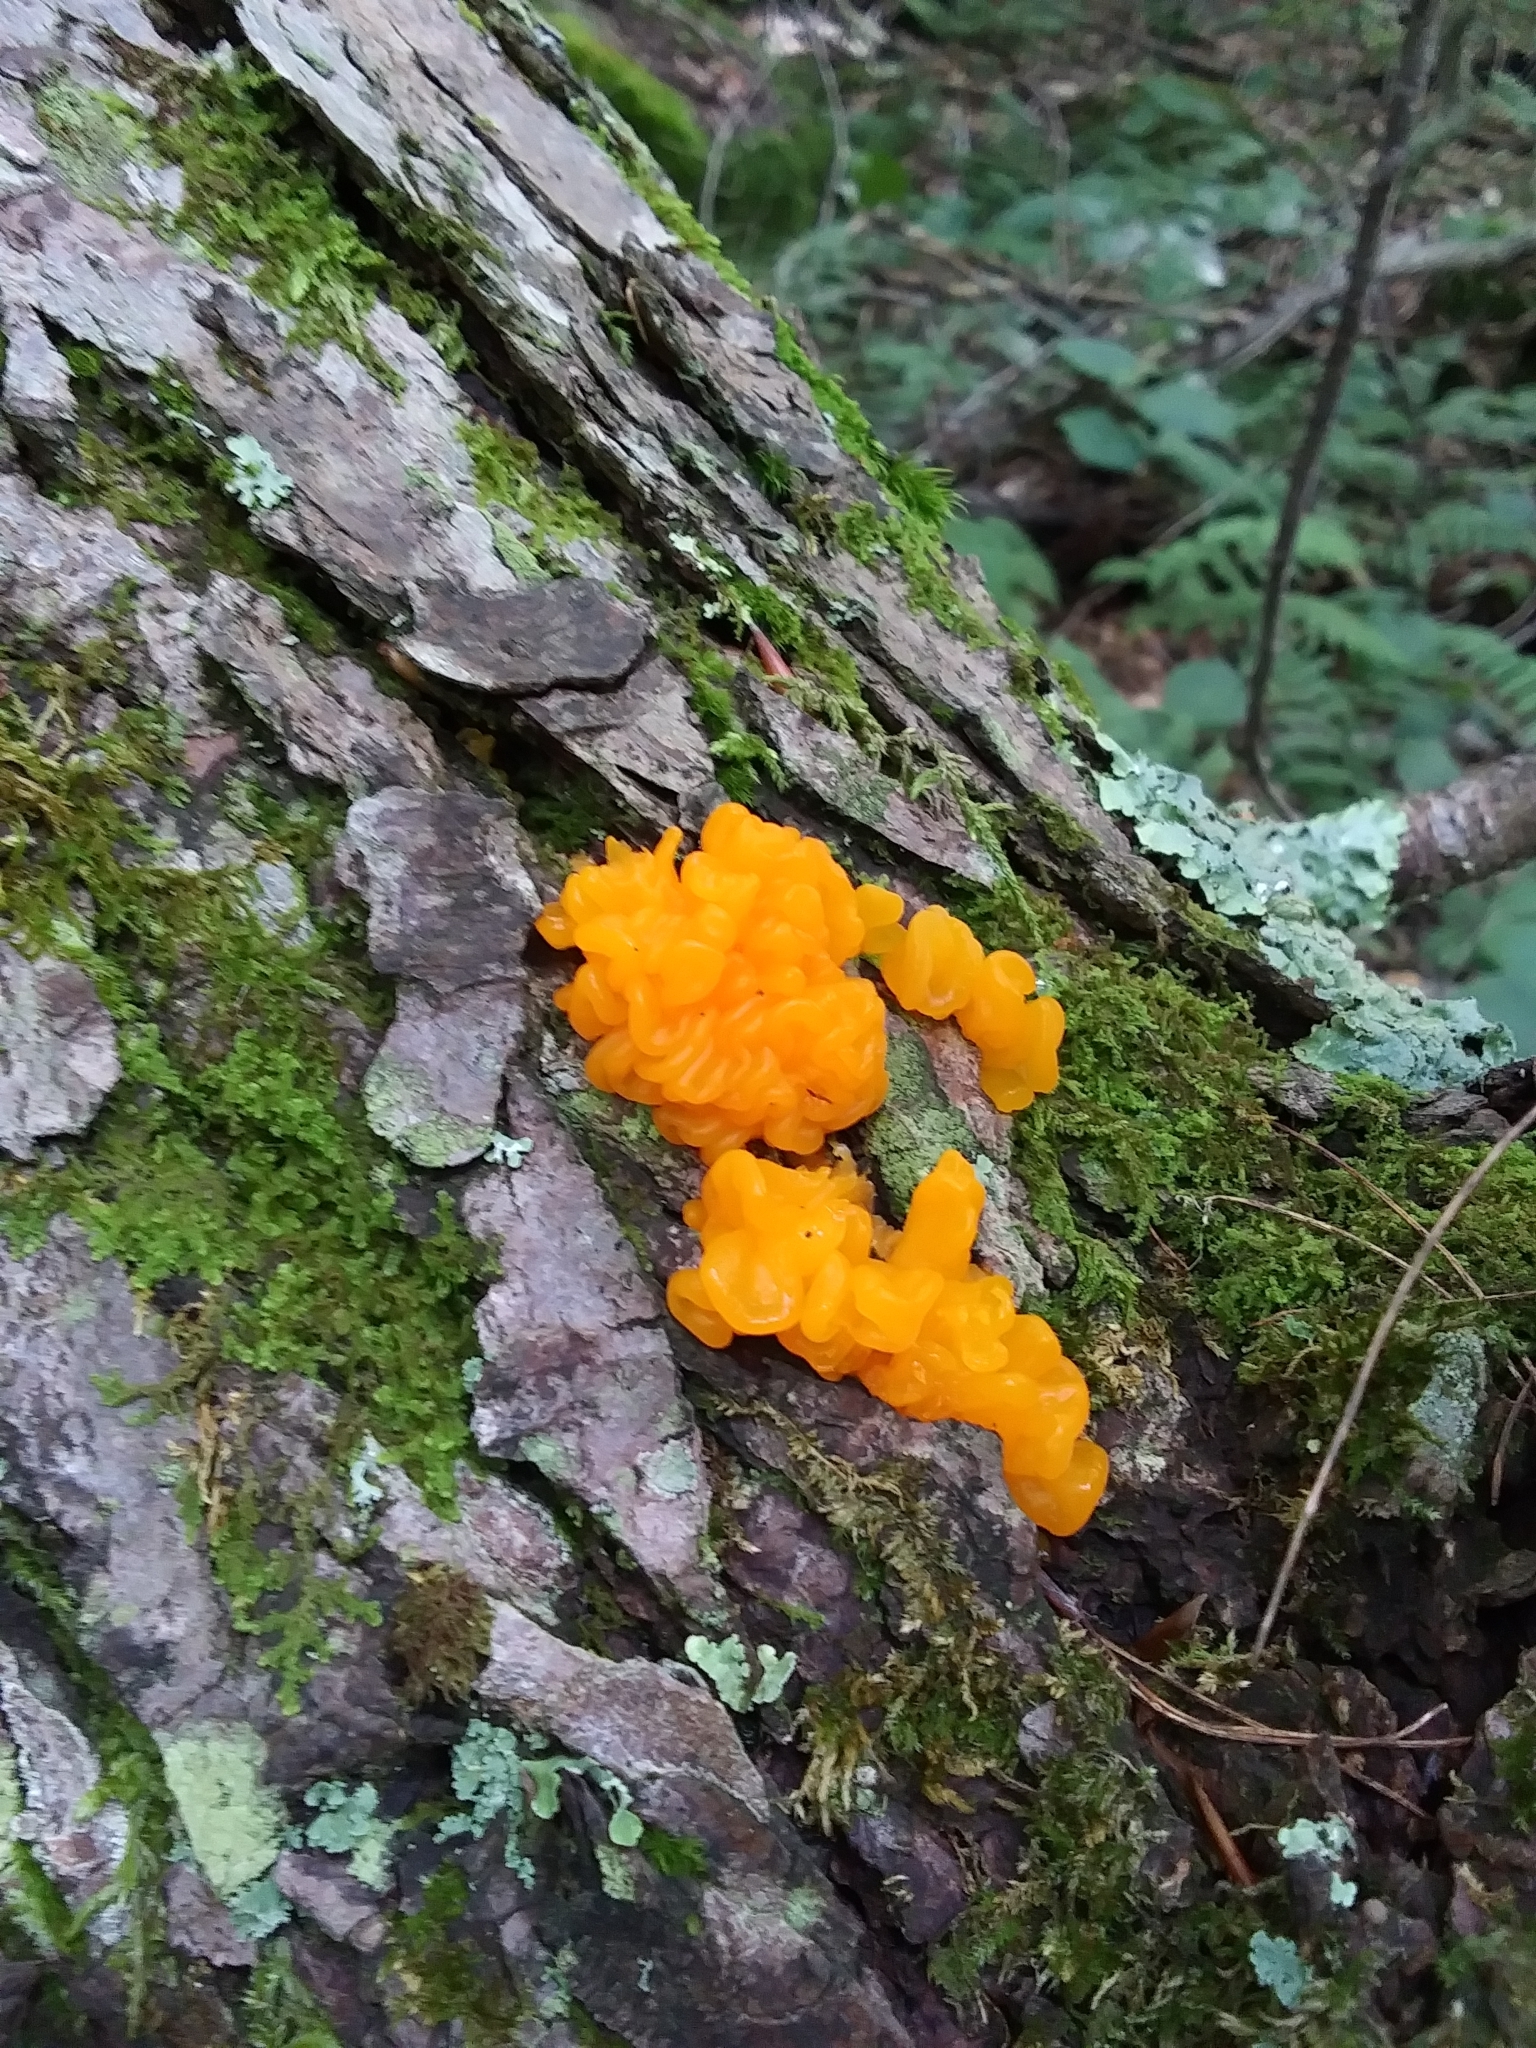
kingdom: Fungi
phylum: Basidiomycota
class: Dacrymycetes
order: Dacrymycetales
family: Dacrymycetaceae
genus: Dacrymyces
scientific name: Dacrymyces chrysospermus
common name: Orange jelly spot
